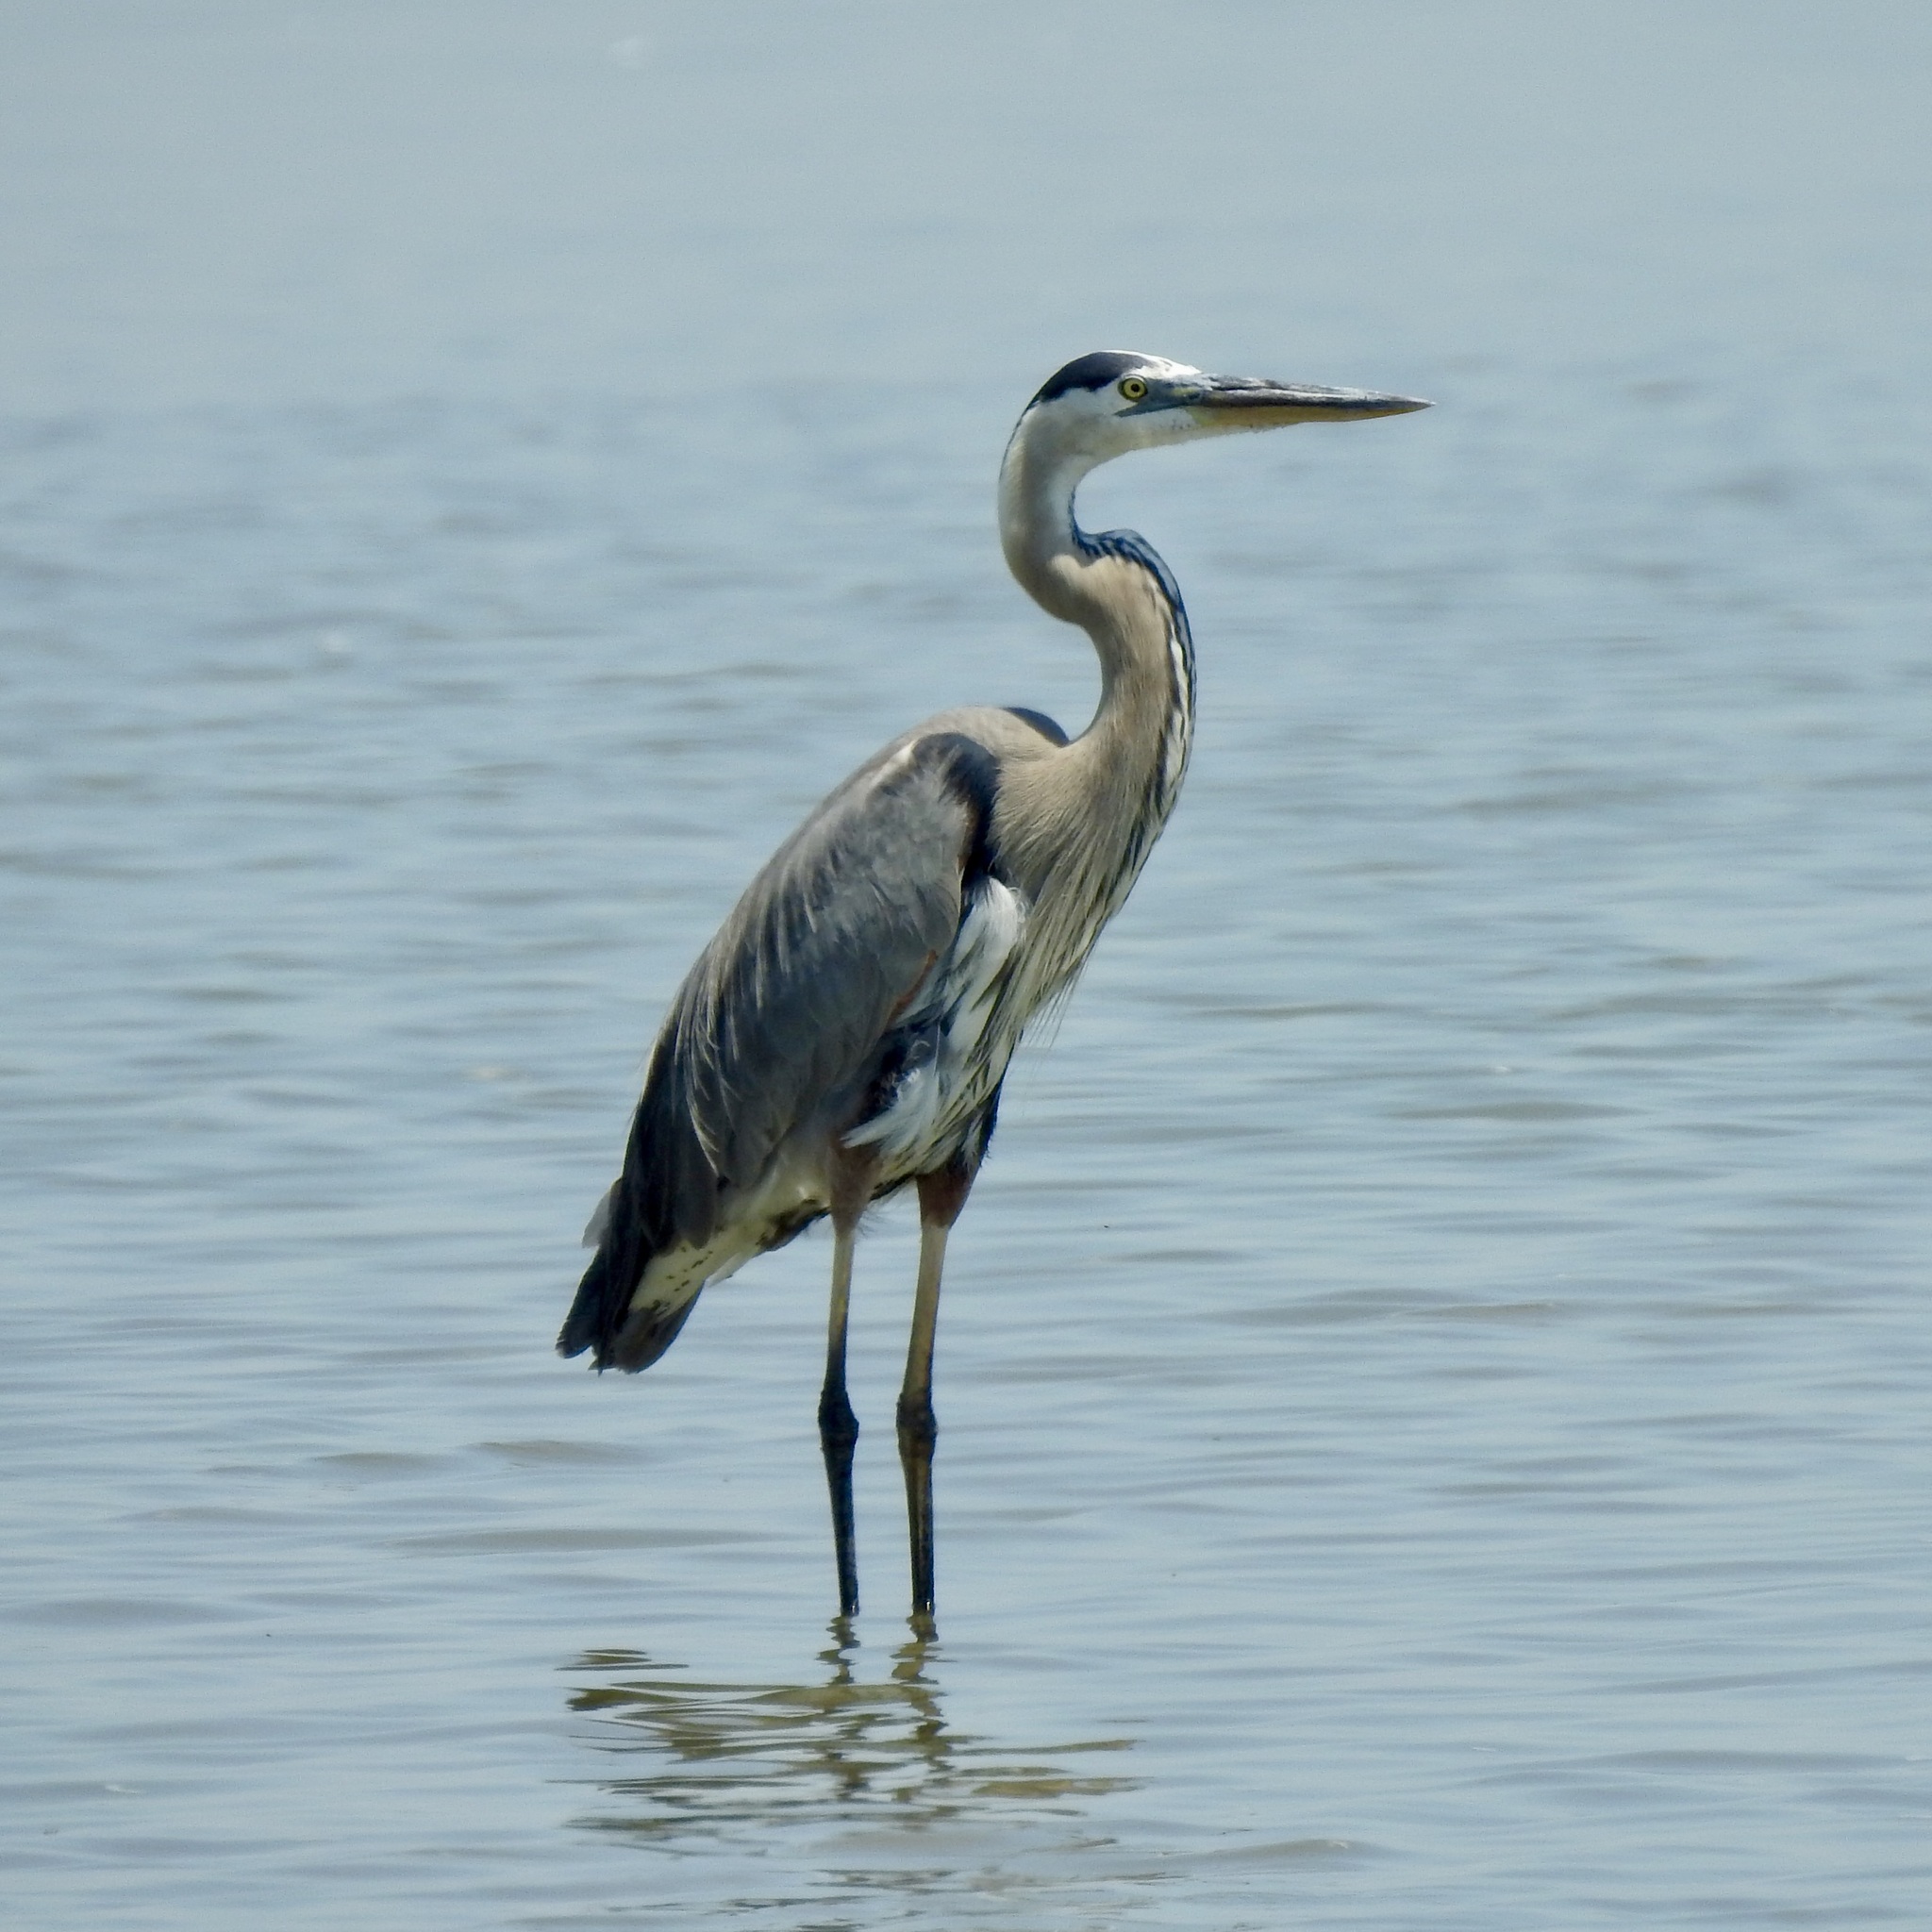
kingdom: Animalia
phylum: Chordata
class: Aves
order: Pelecaniformes
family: Ardeidae
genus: Ardea
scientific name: Ardea herodias
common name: Great blue heron
